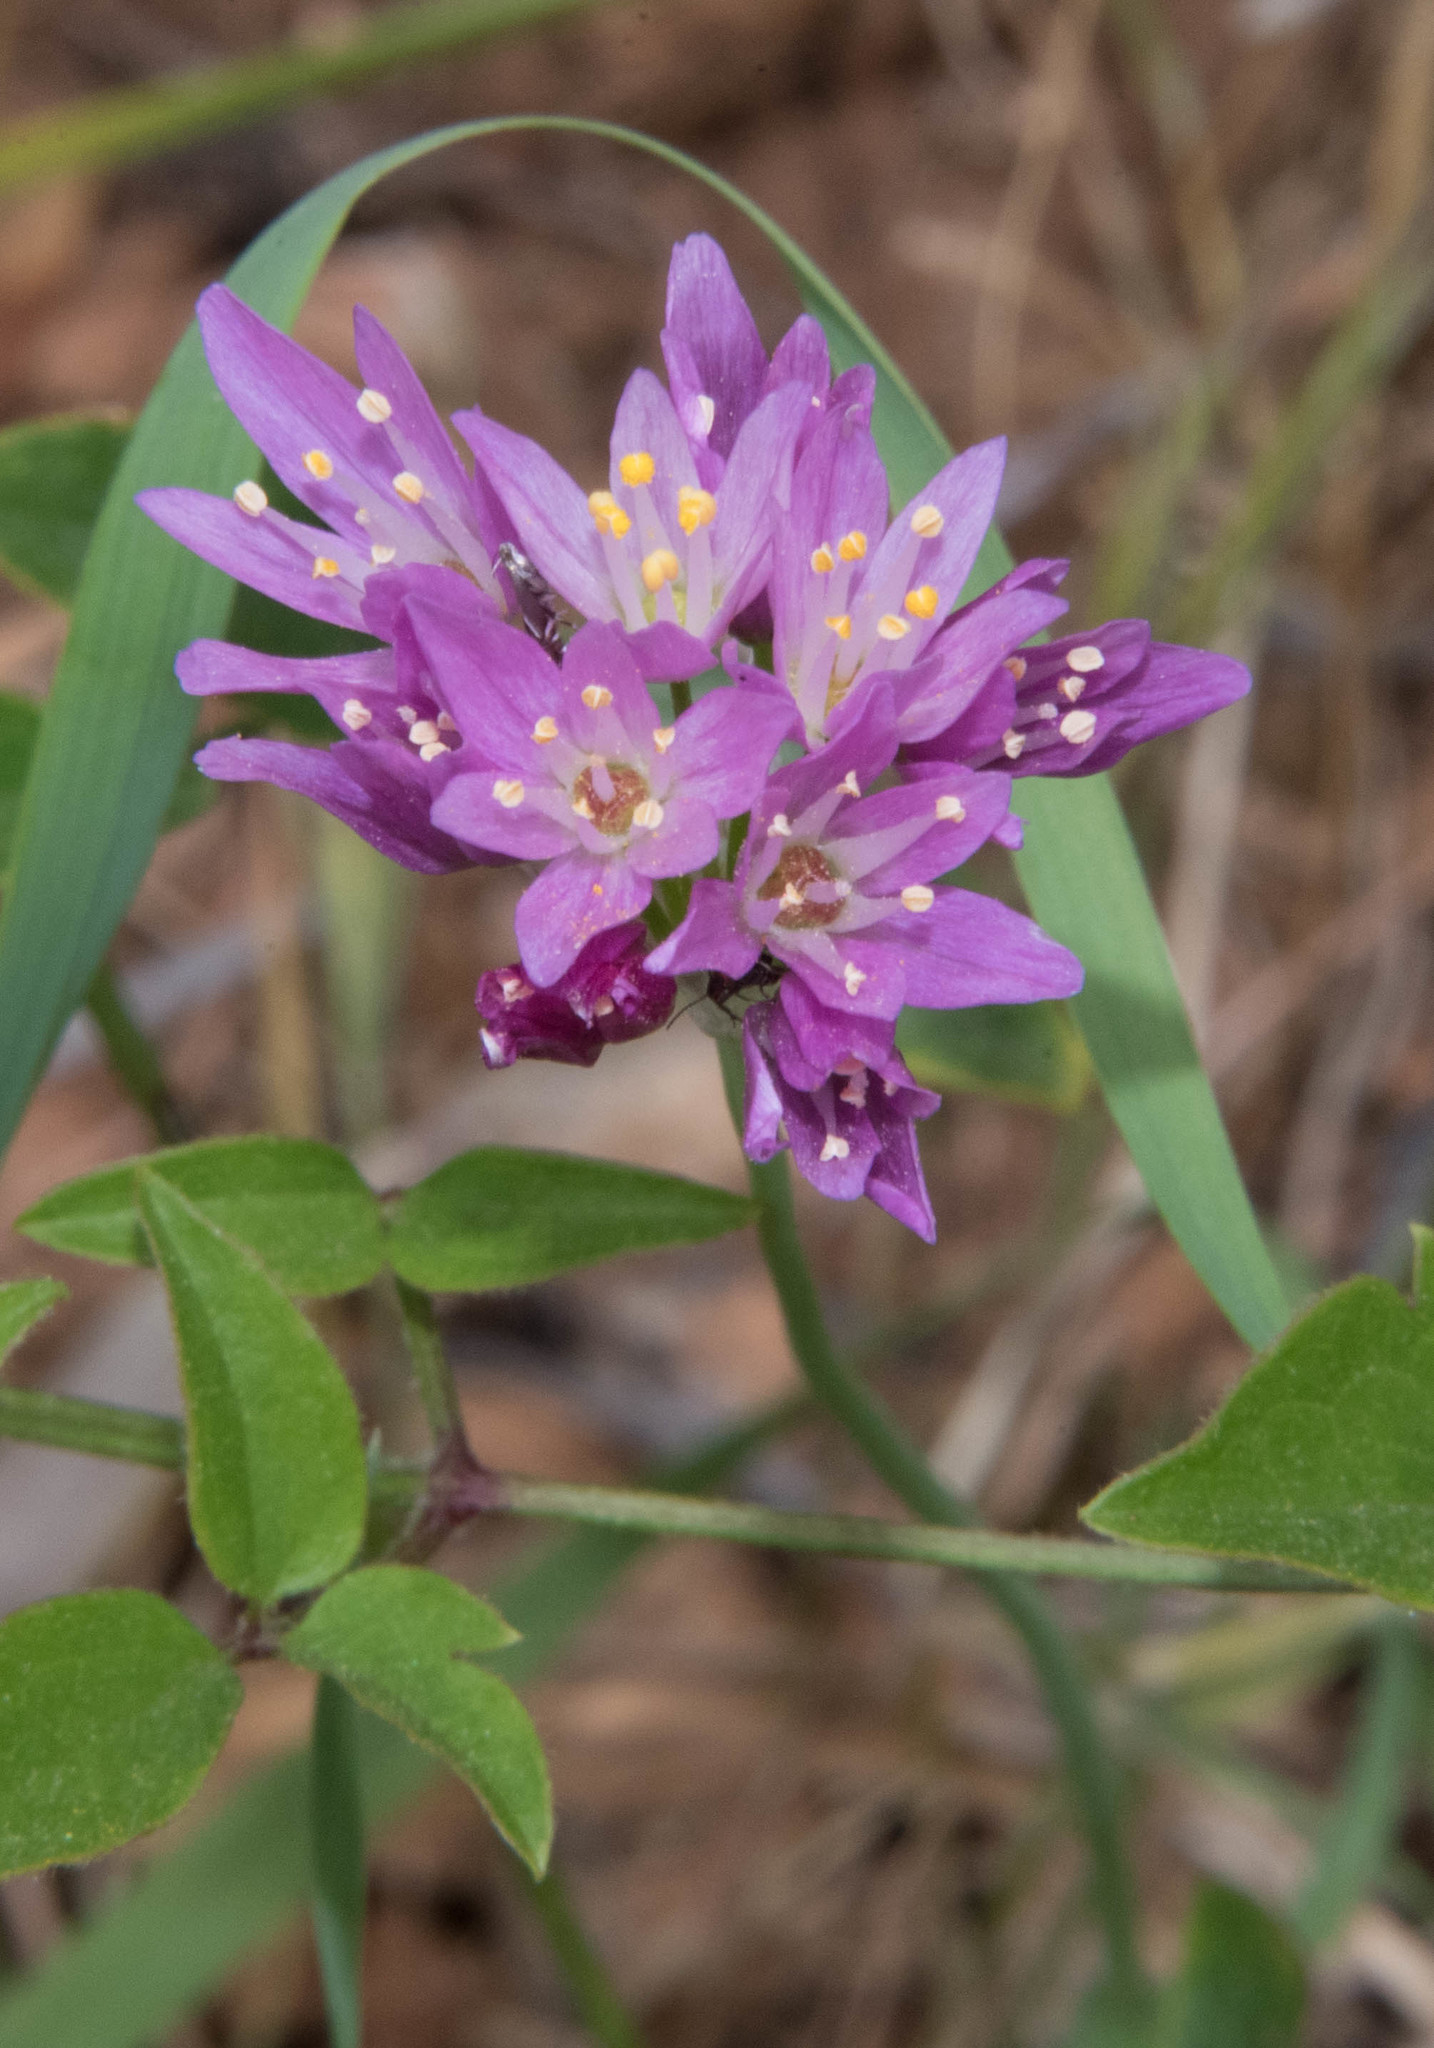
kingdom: Plantae
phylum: Tracheophyta
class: Liliopsida
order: Asparagales
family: Amaryllidaceae
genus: Allium
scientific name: Allium roseum
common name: Rosy garlic
